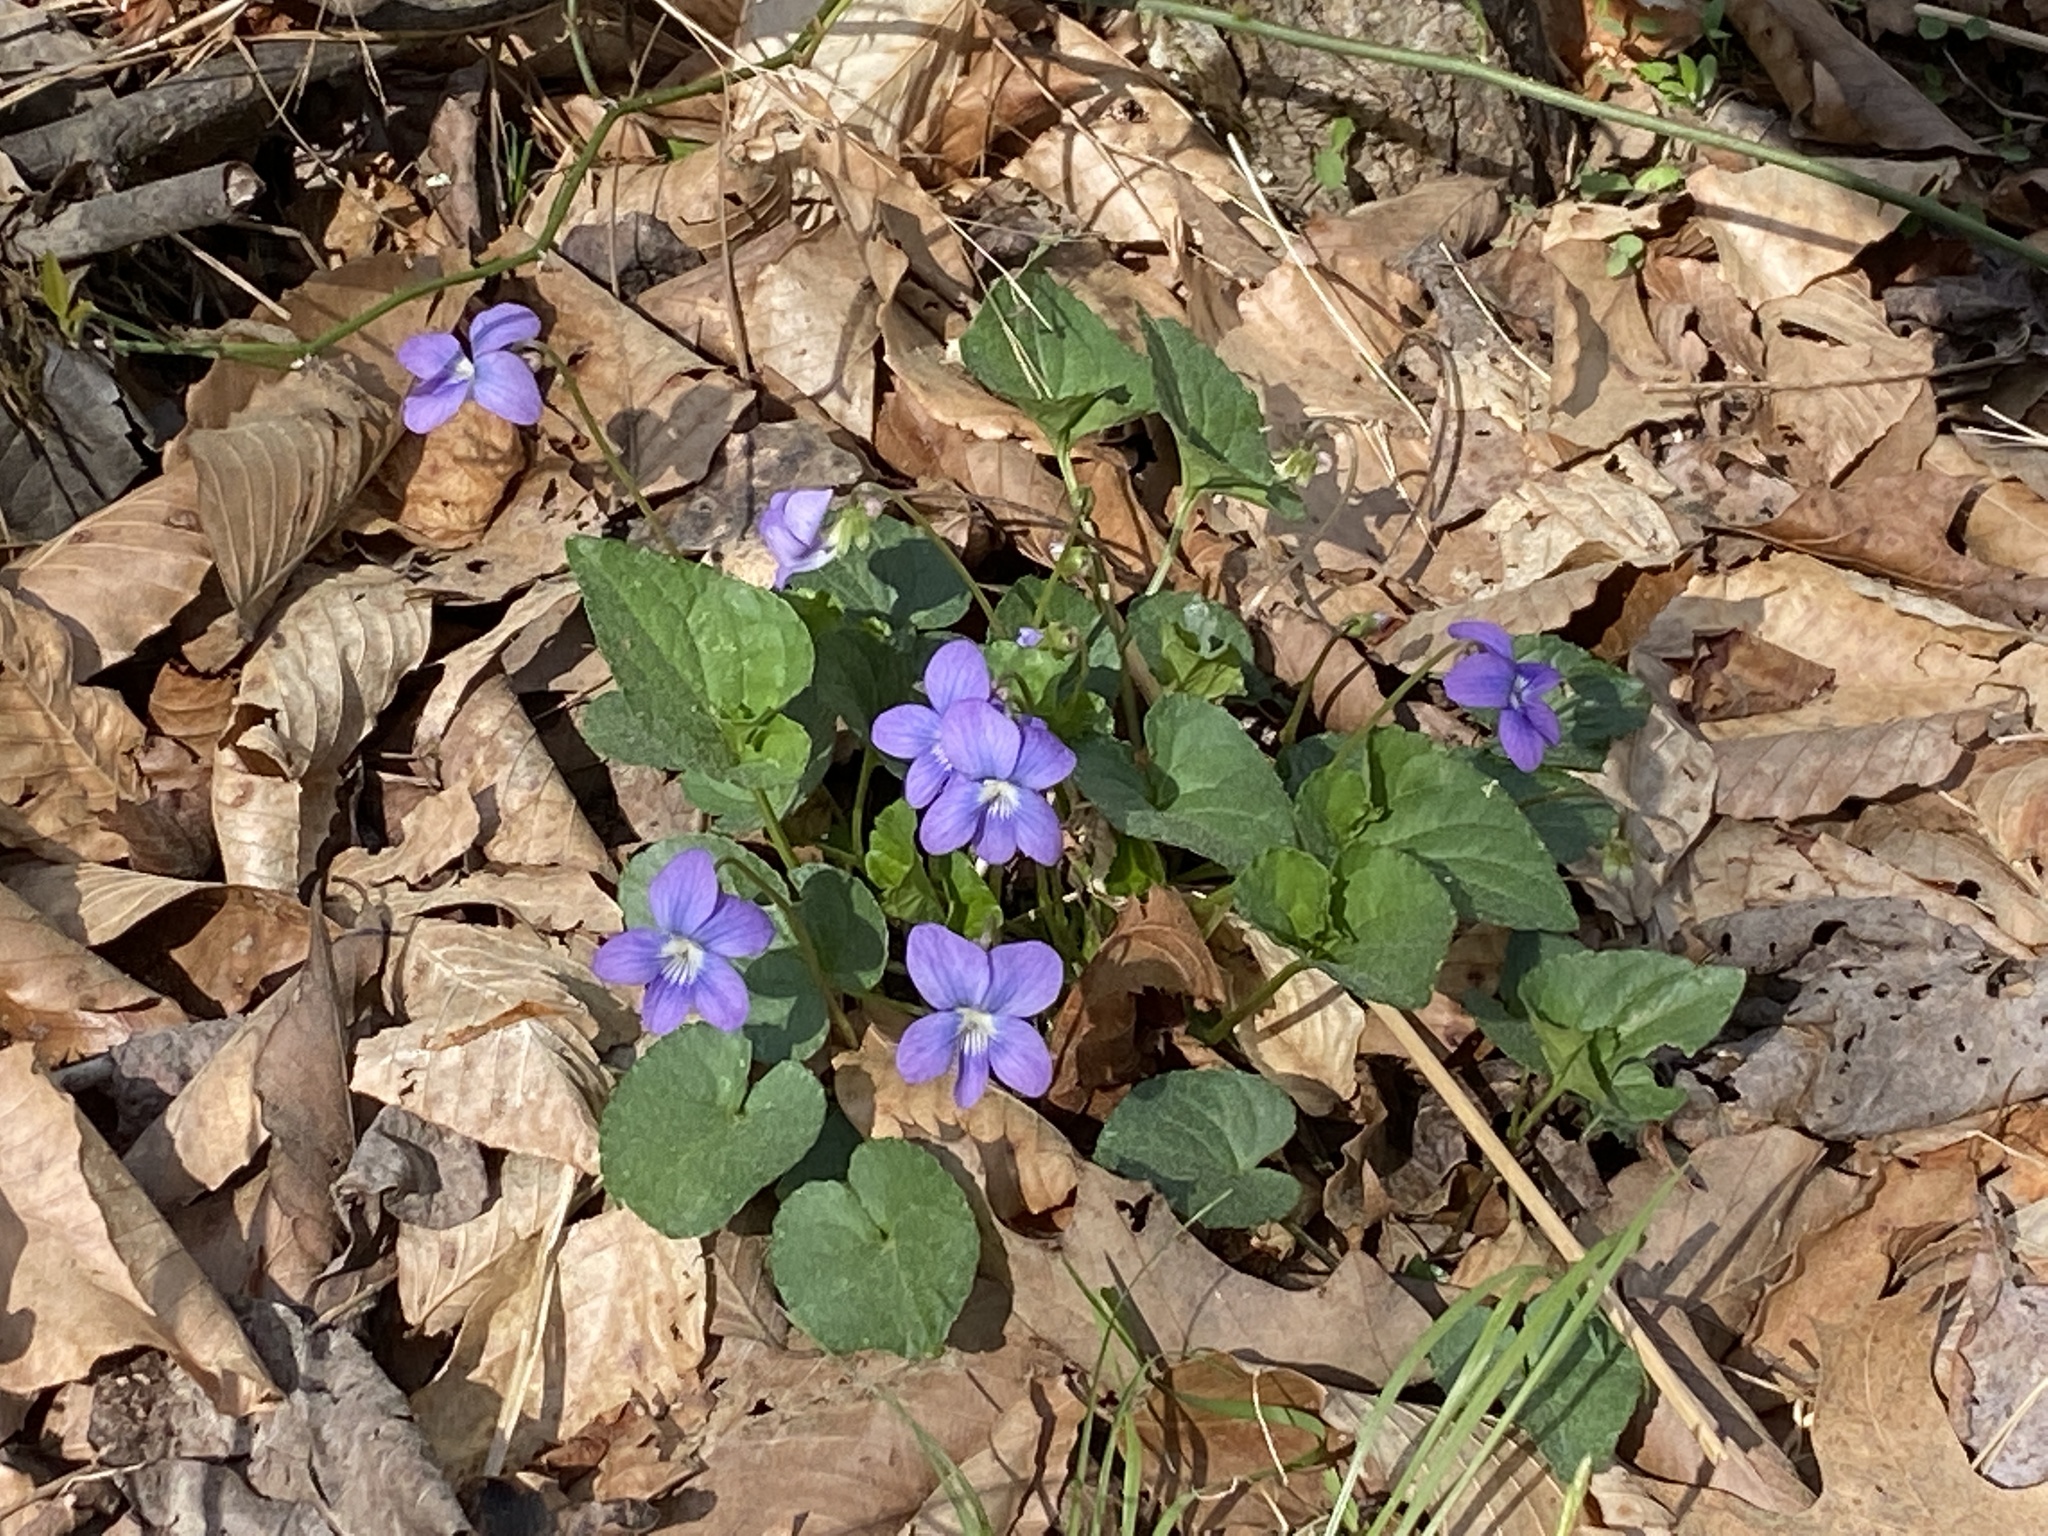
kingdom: Plantae
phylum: Tracheophyta
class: Magnoliopsida
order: Malpighiales
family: Violaceae
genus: Viola
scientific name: Viola sororia
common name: Dooryard violet
